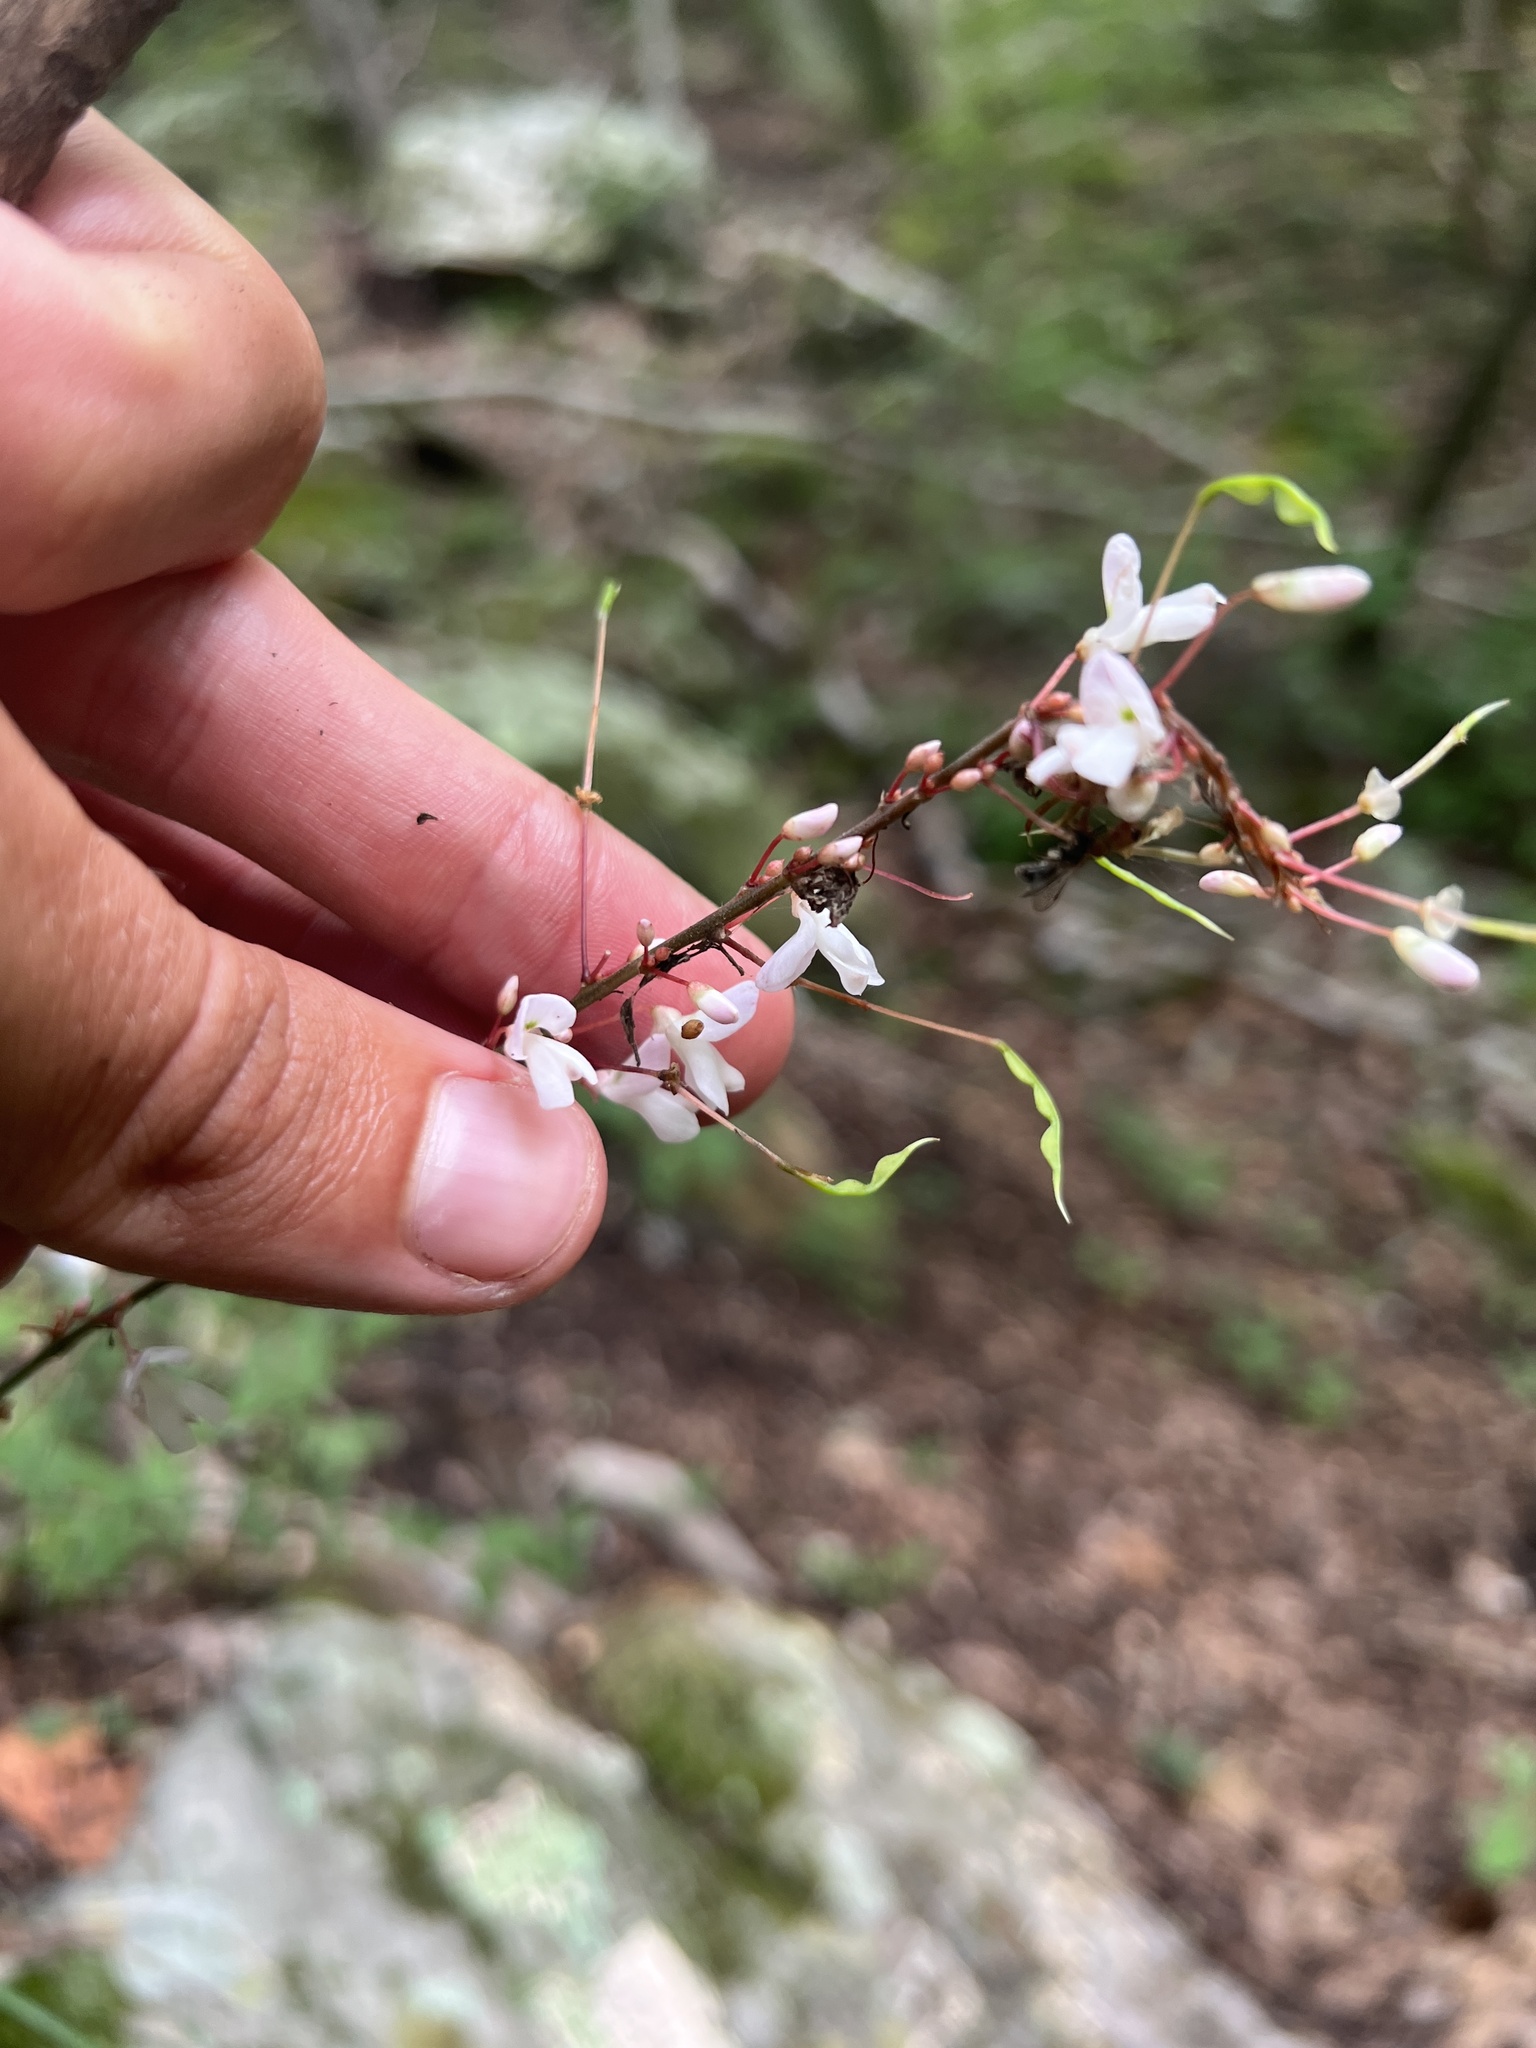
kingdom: Plantae
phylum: Tracheophyta
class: Magnoliopsida
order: Fabales
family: Fabaceae
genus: Hylodesmum
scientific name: Hylodesmum nudiflorum
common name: Bare-stemmed tick-trefoil
